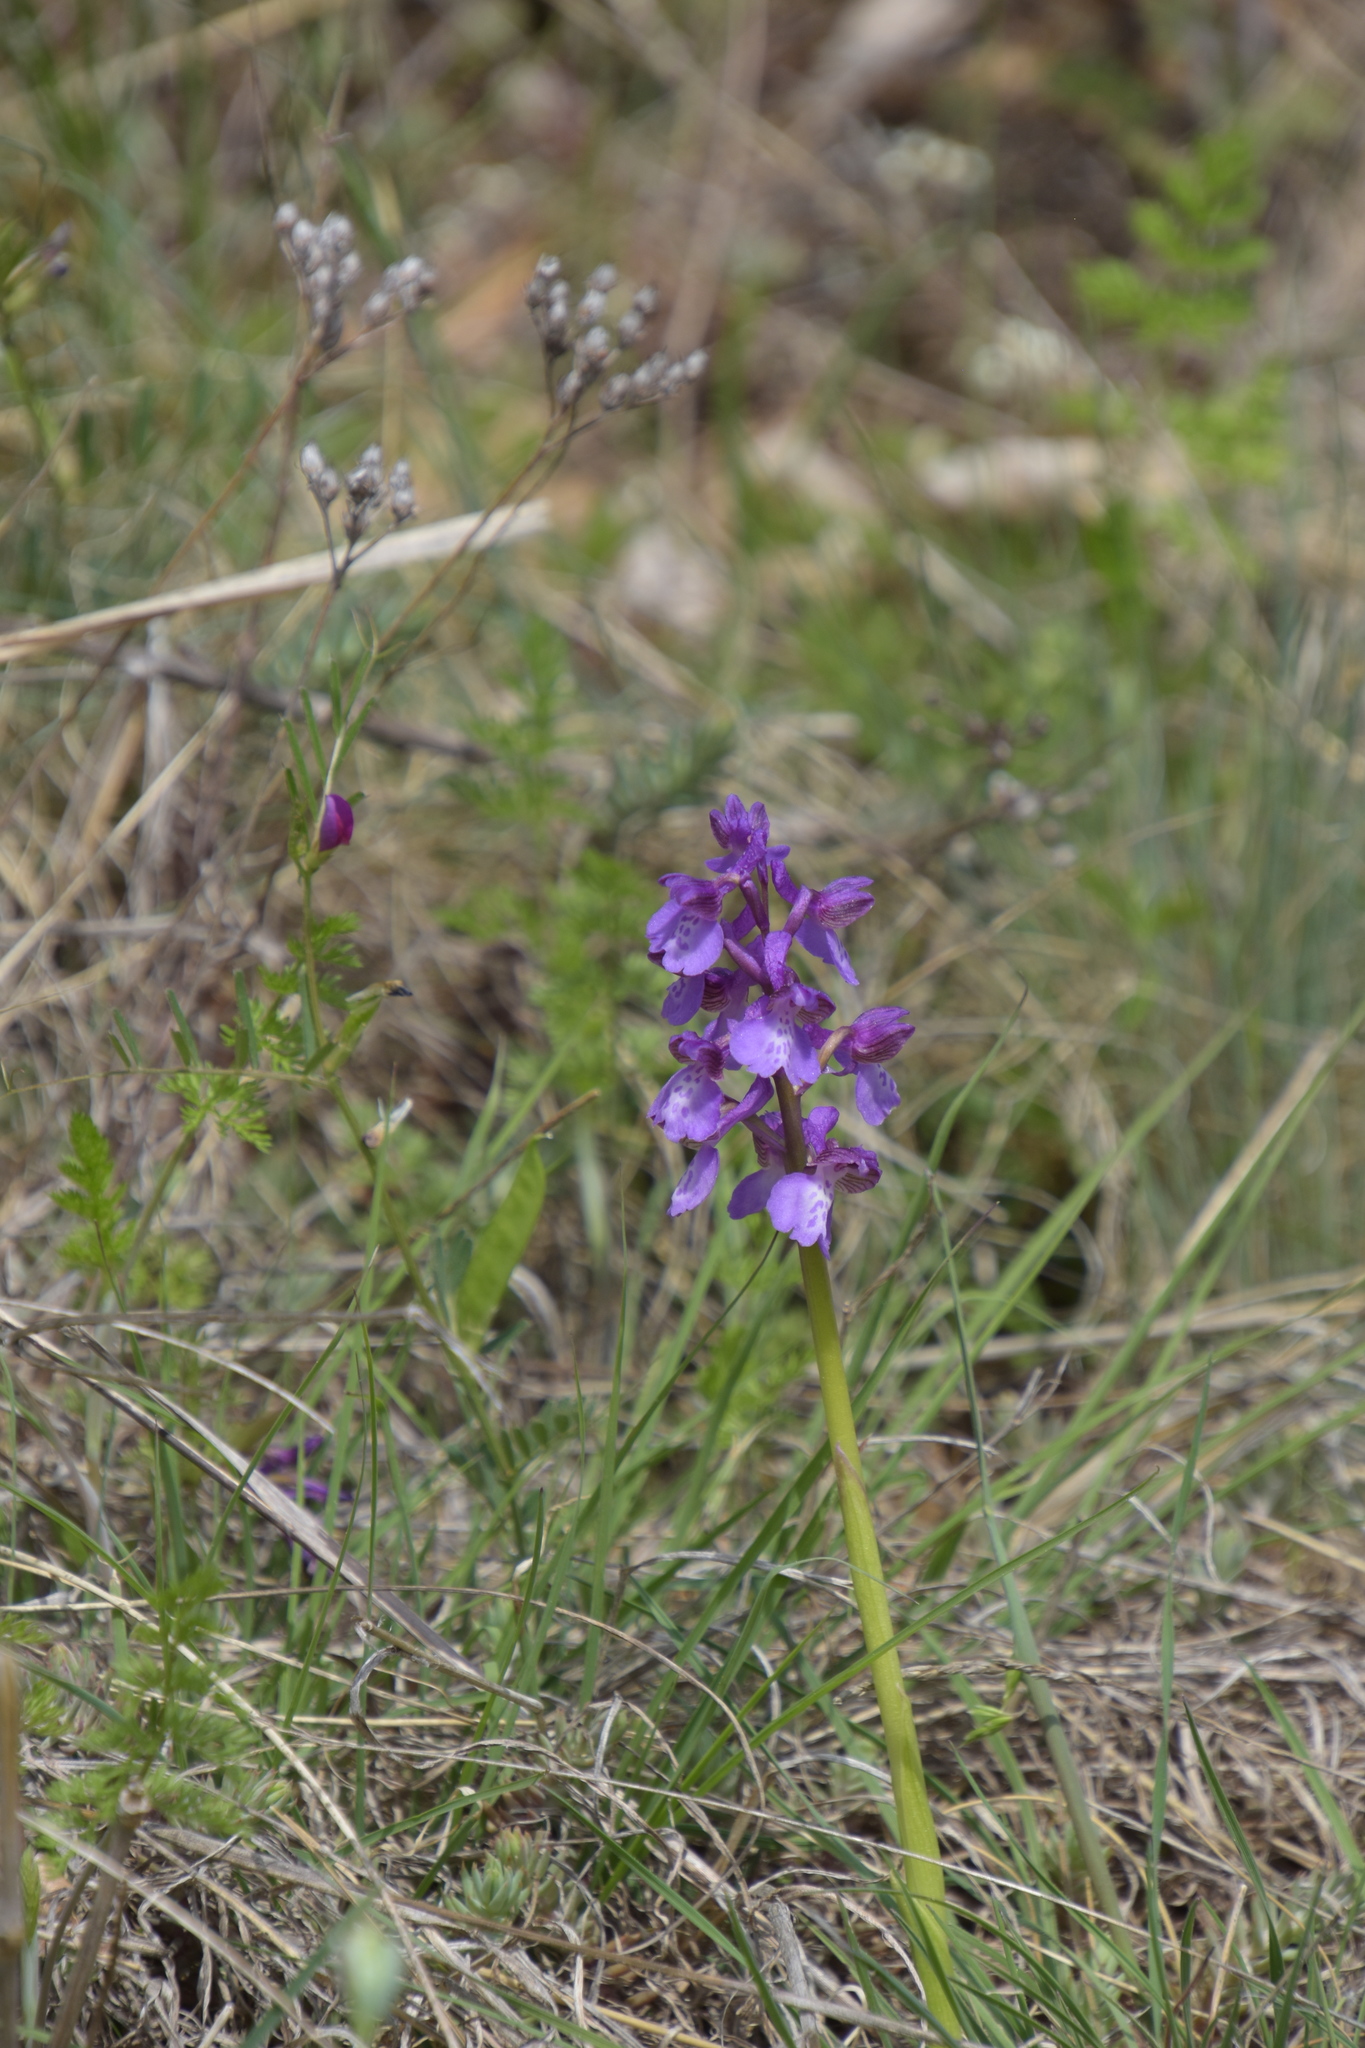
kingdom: Plantae
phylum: Tracheophyta
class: Liliopsida
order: Asparagales
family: Orchidaceae
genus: Anacamptis
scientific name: Anacamptis morio
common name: Green-winged orchid
